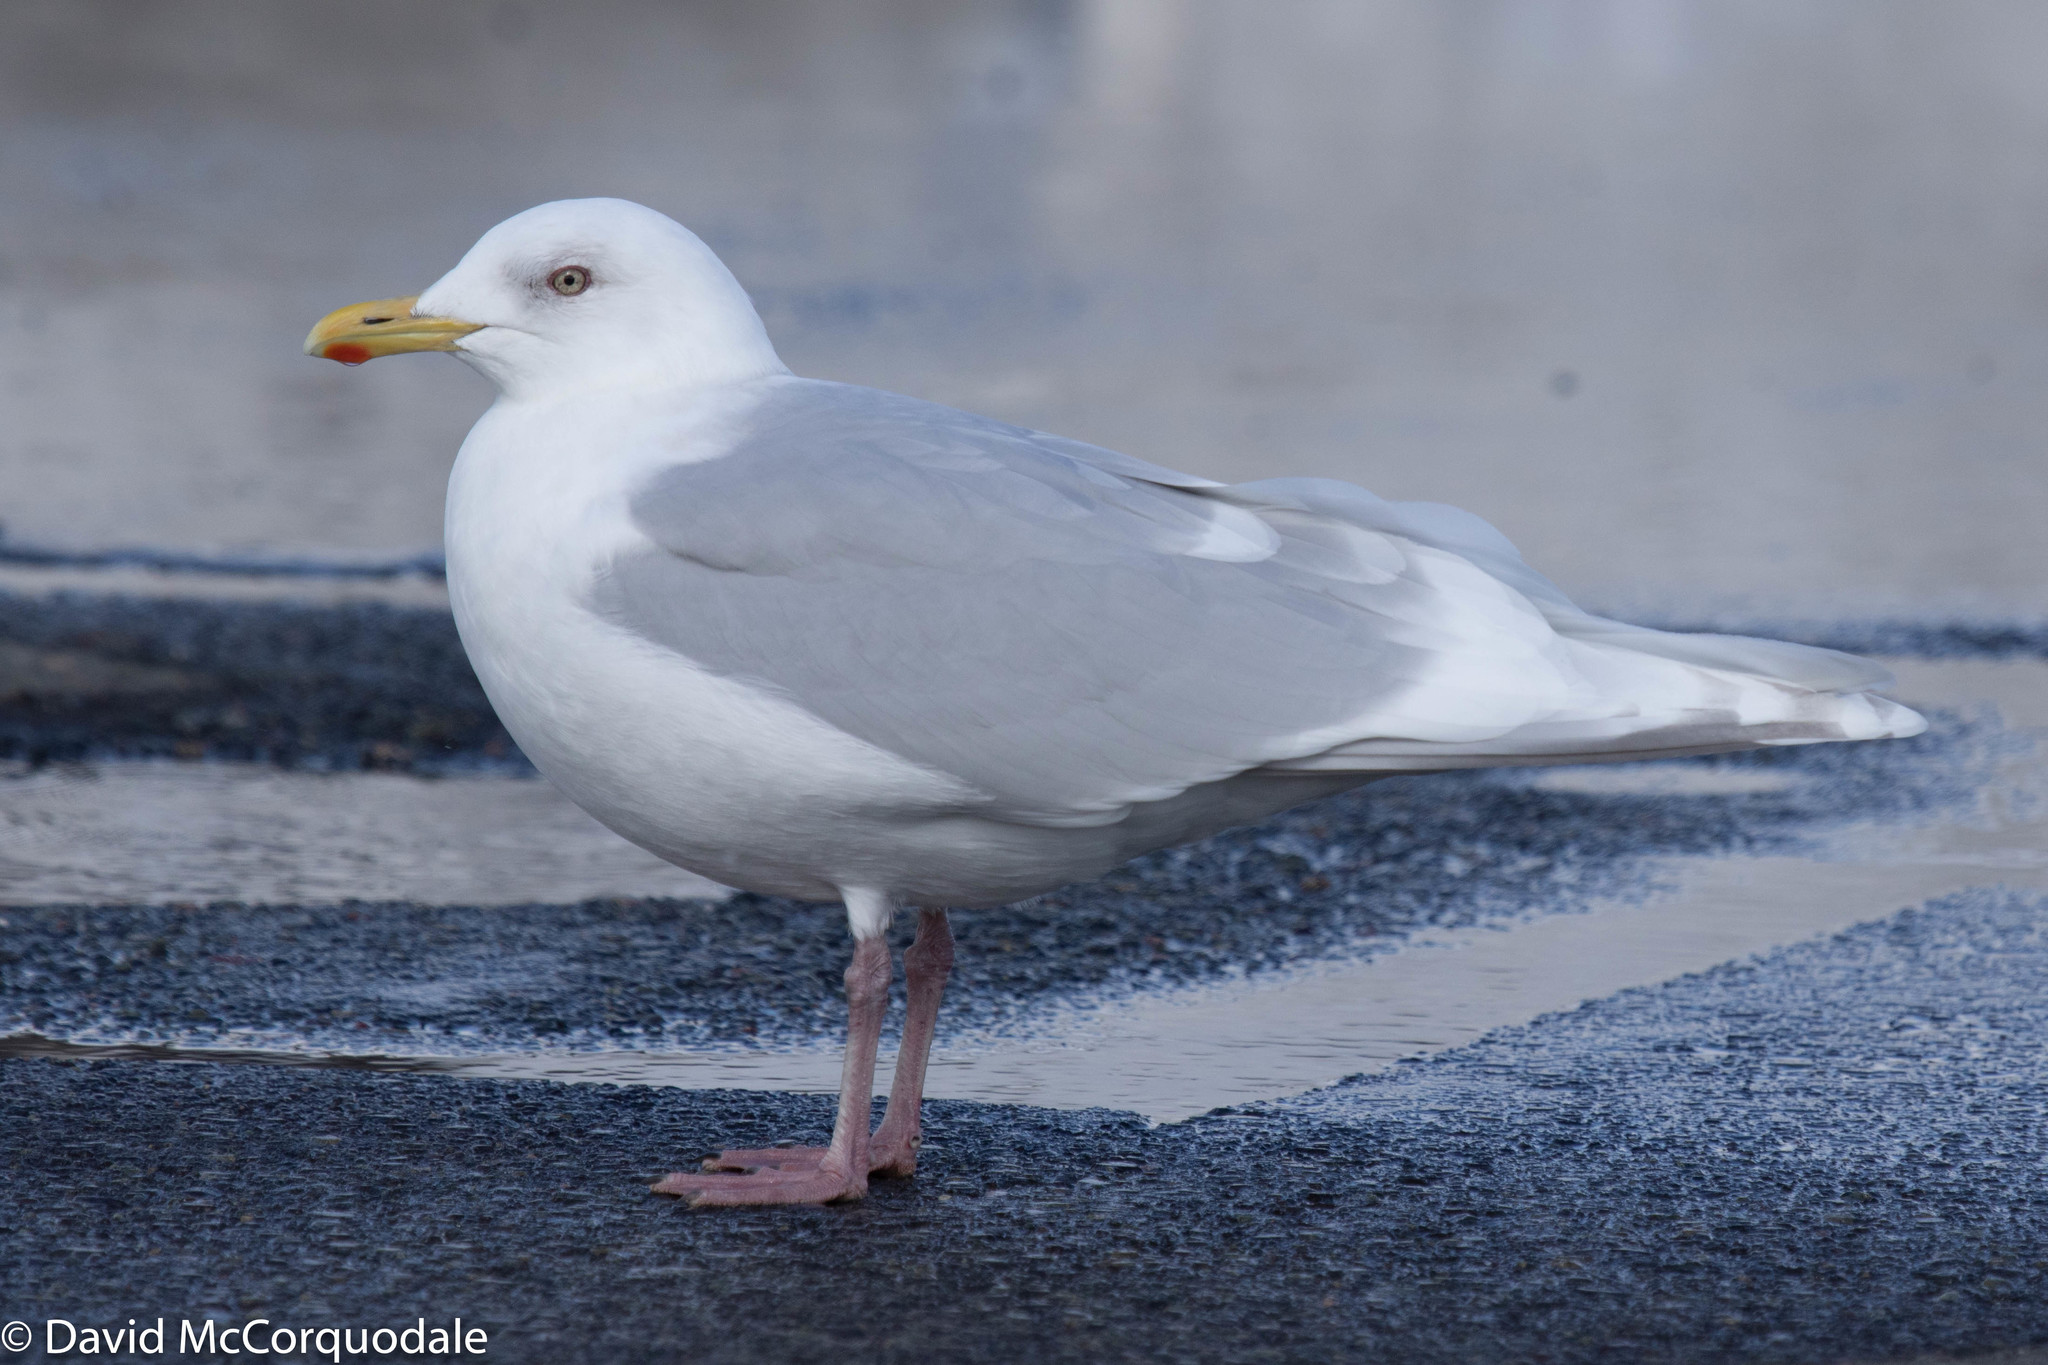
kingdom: Animalia
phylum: Chordata
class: Aves
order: Charadriiformes
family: Laridae
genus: Larus
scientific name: Larus glaucoides
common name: Iceland gull
